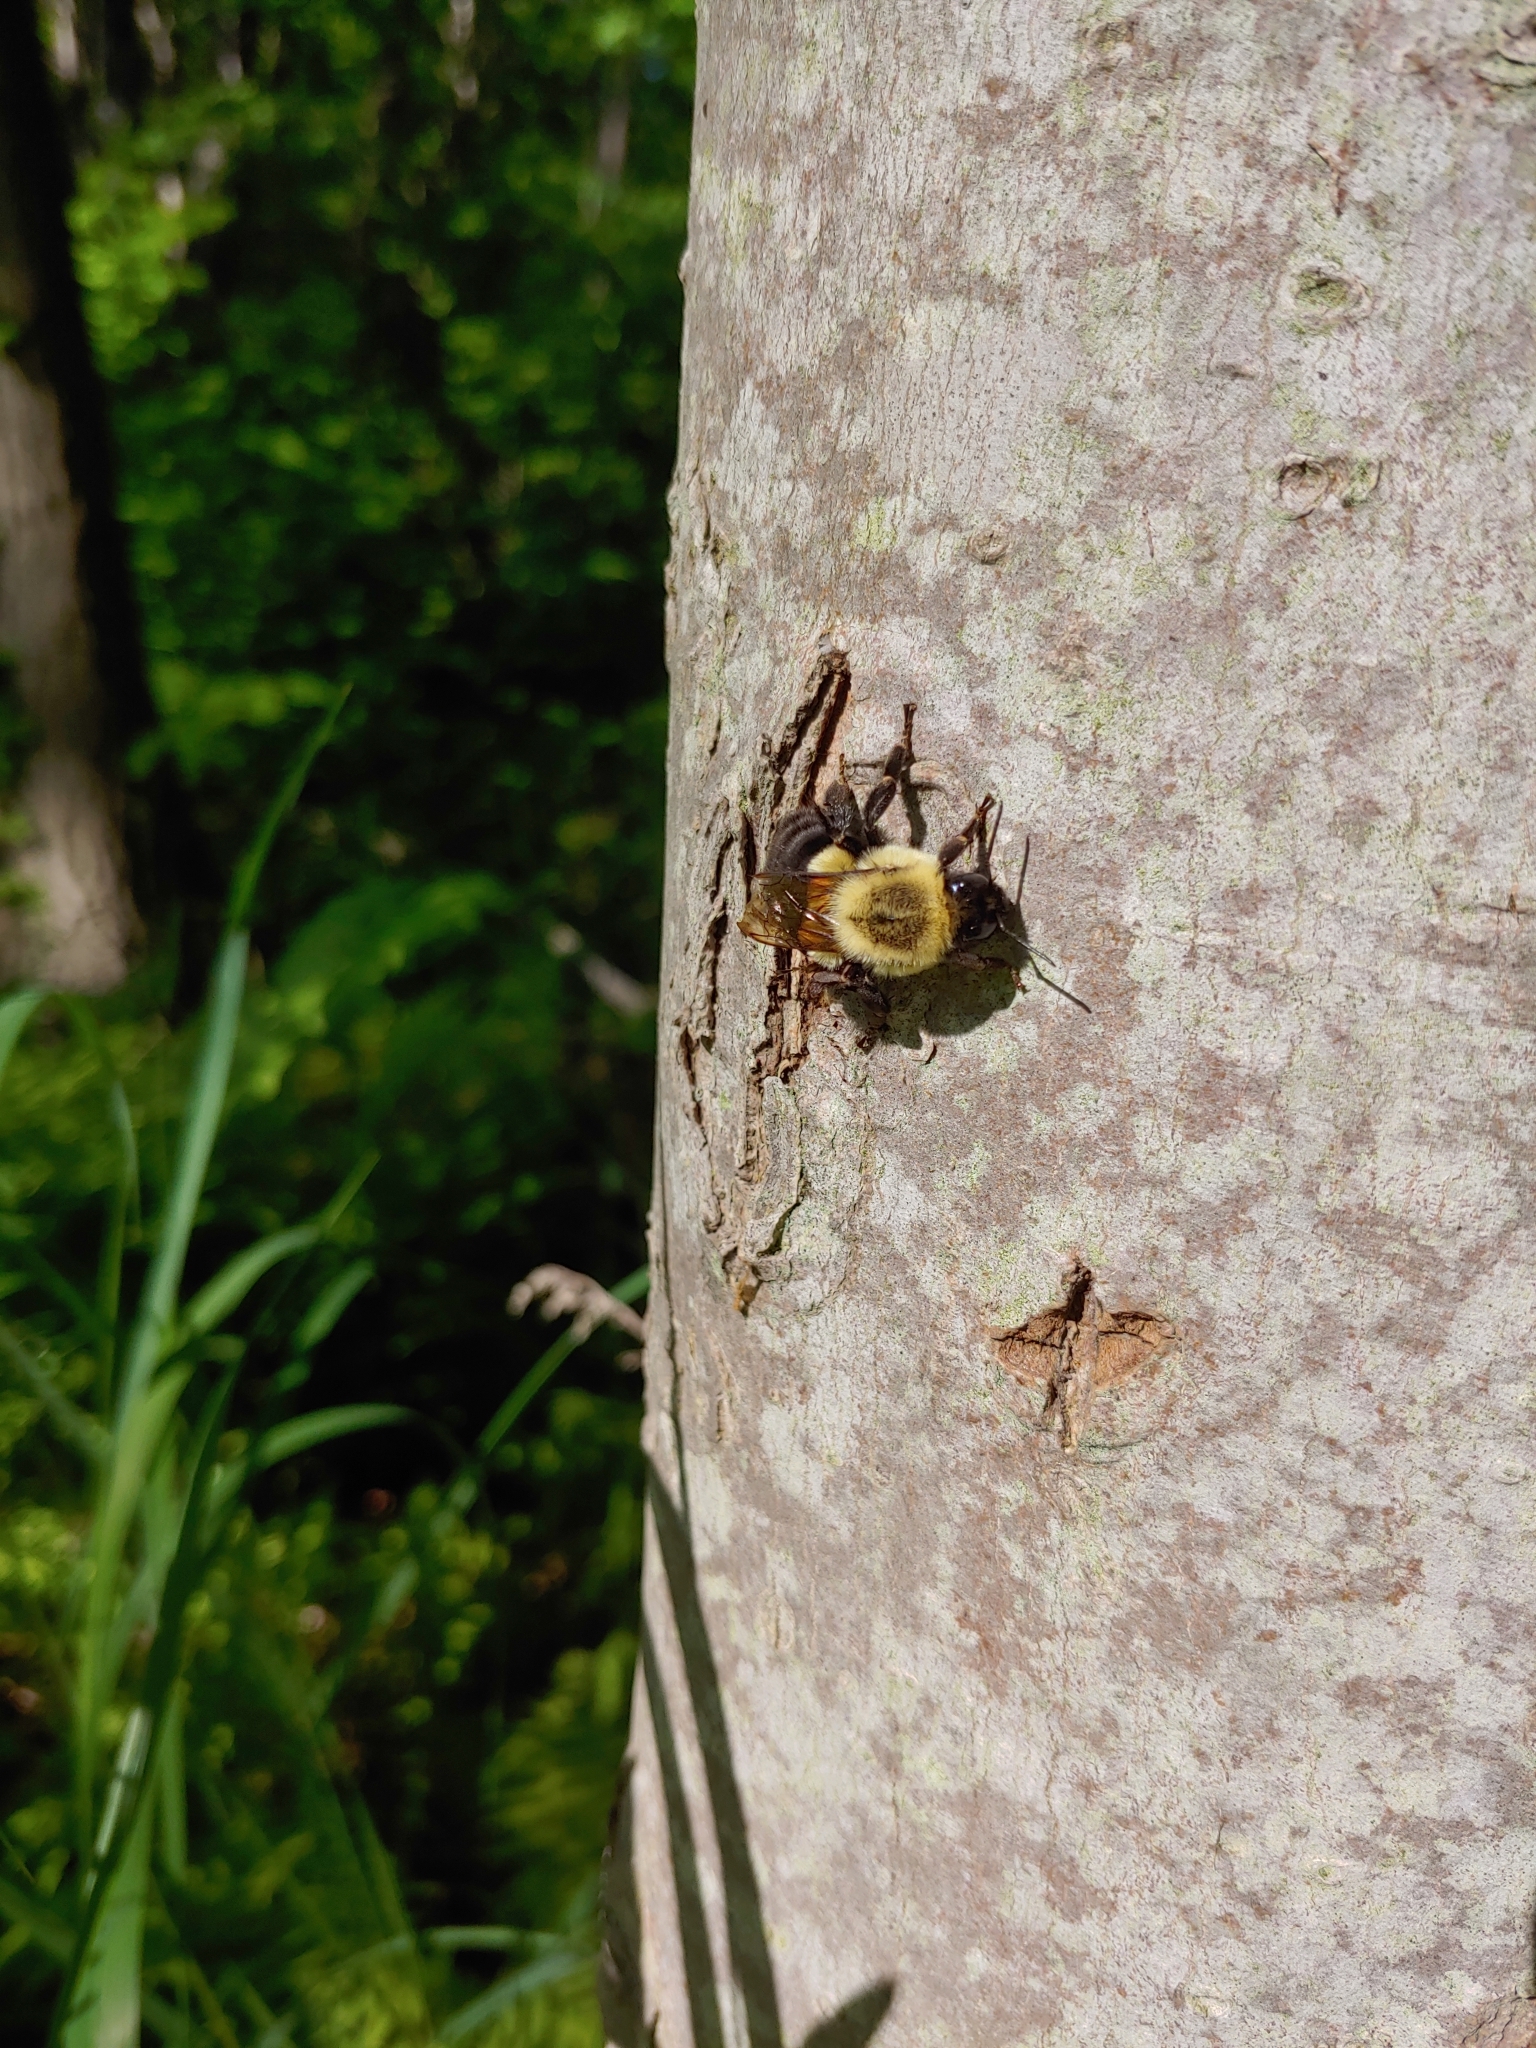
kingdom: Animalia
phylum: Arthropoda
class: Insecta
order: Hymenoptera
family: Apidae
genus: Bombus
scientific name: Bombus impatiens
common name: Common eastern bumble bee
